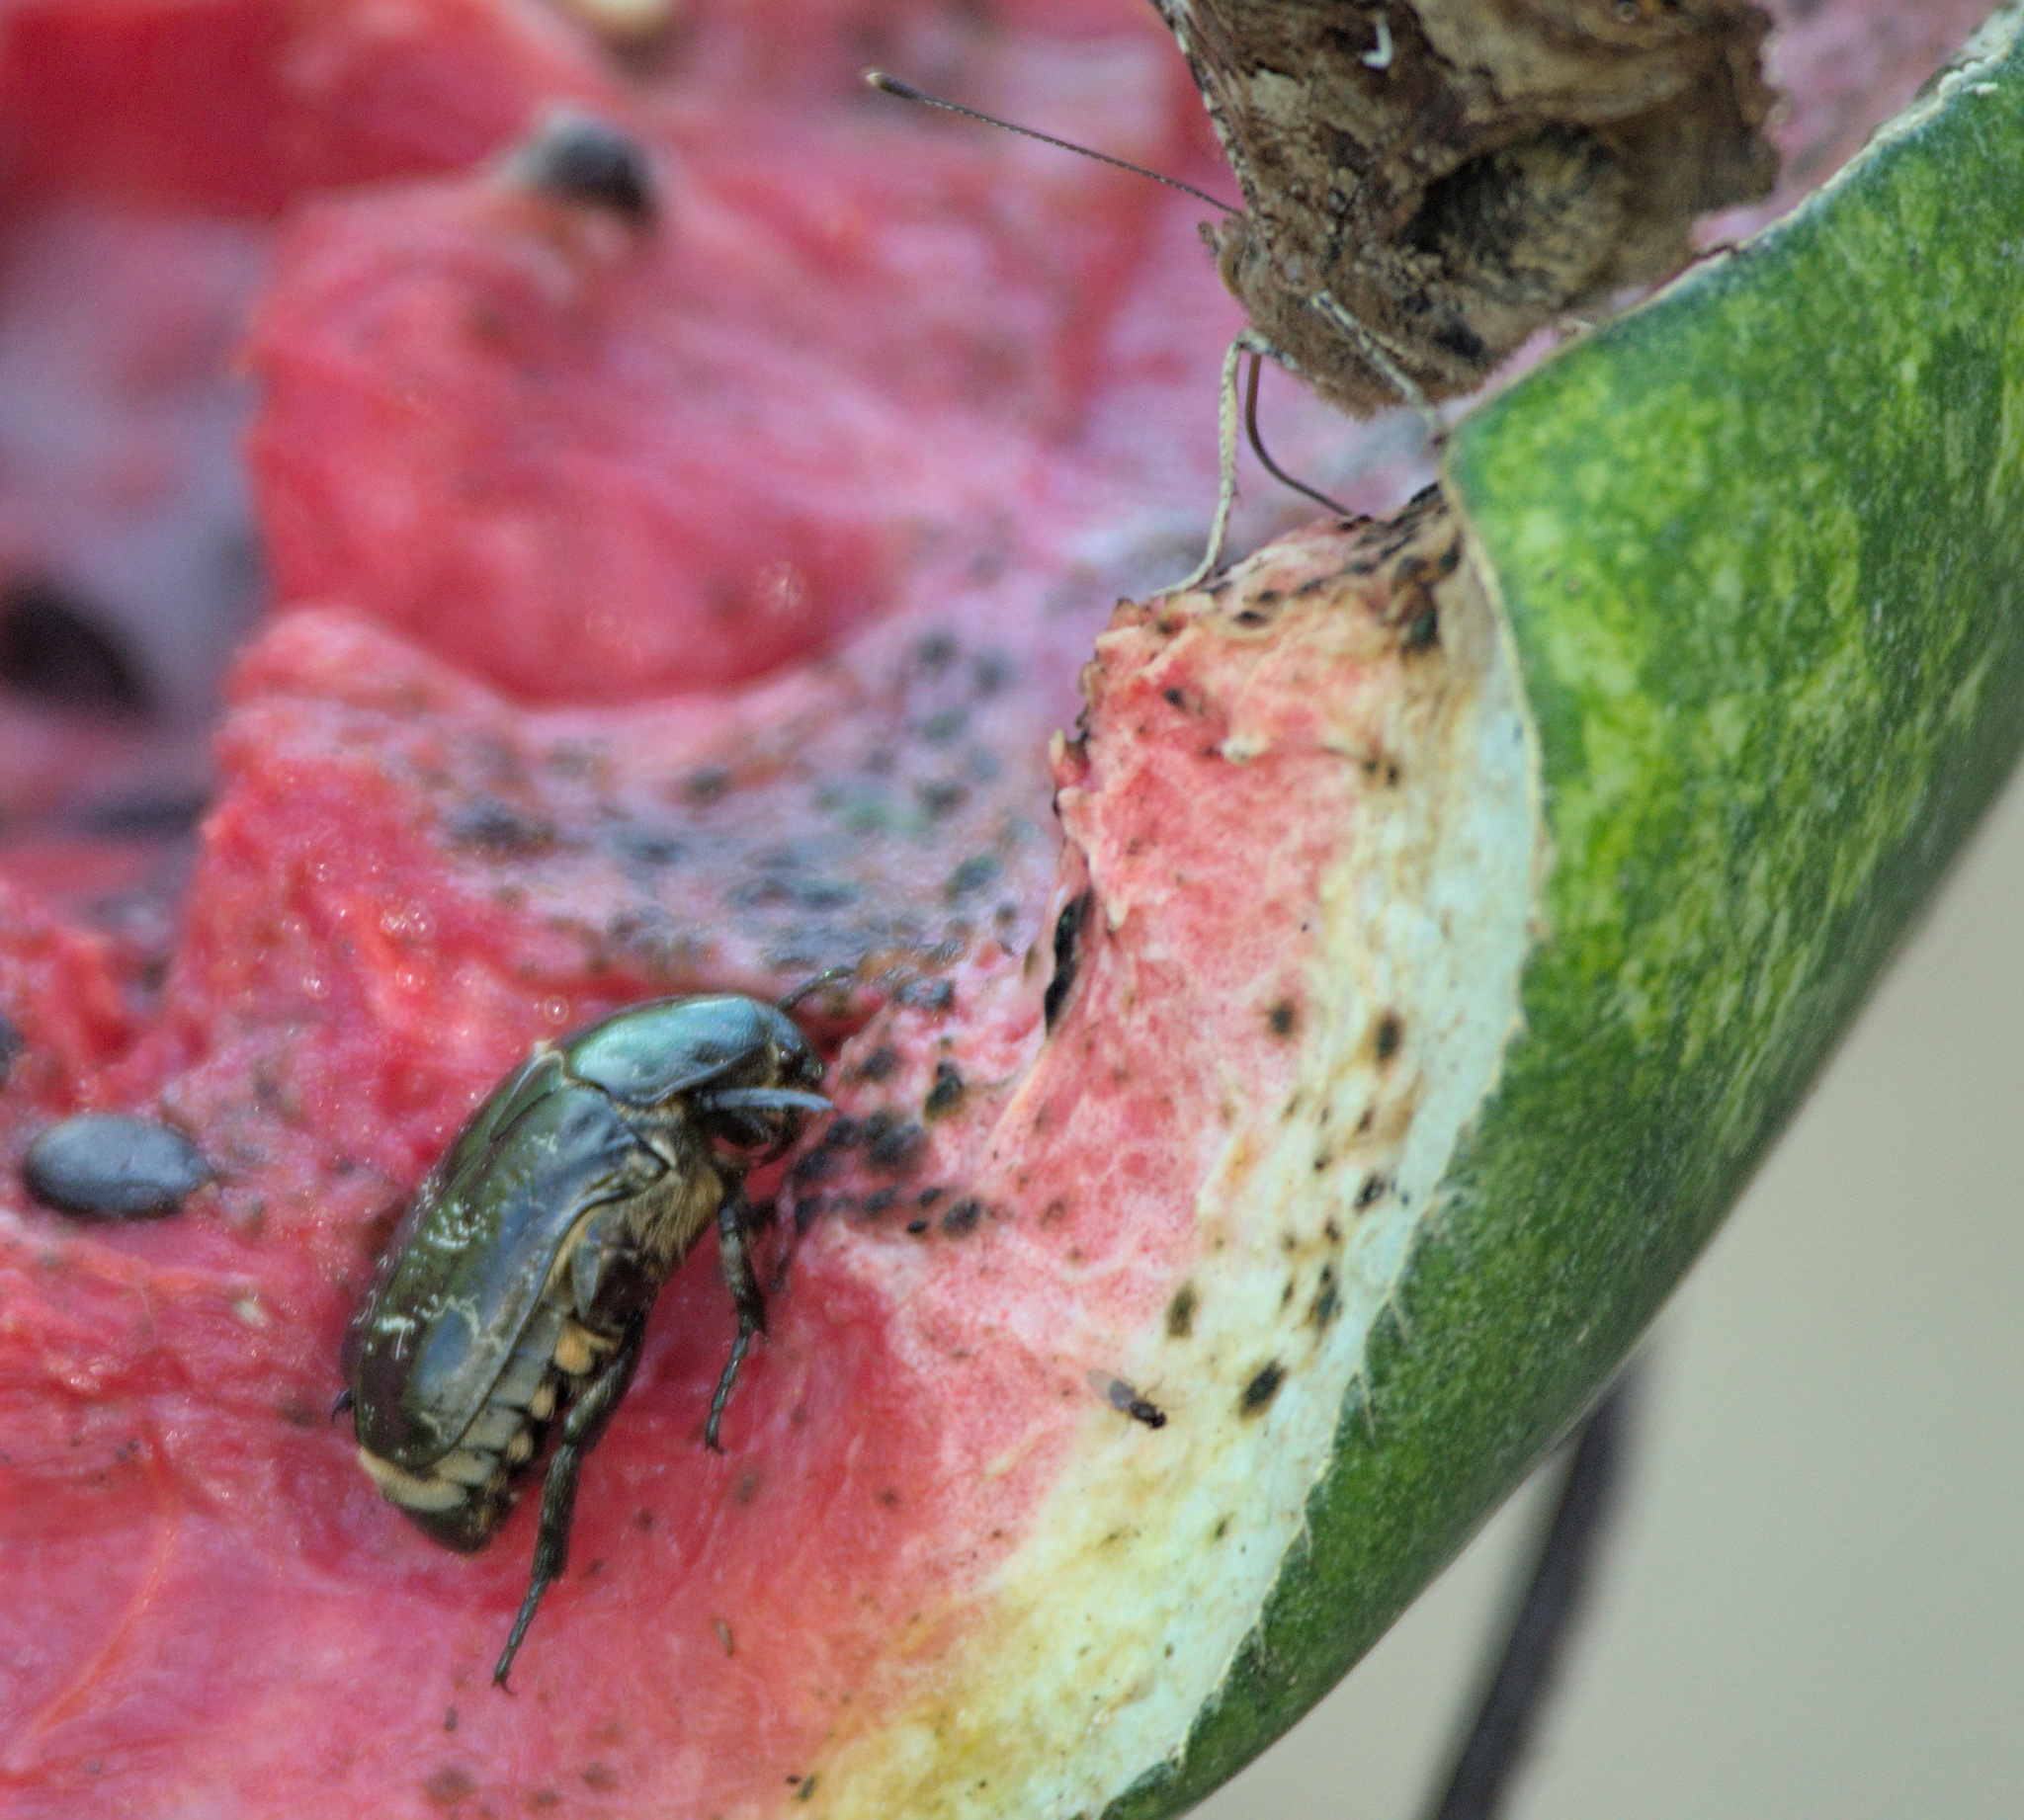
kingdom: Animalia
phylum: Arthropoda
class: Insecta
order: Coleoptera
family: Scarabaeidae
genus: Protaetia
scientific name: Protaetia marmorata
